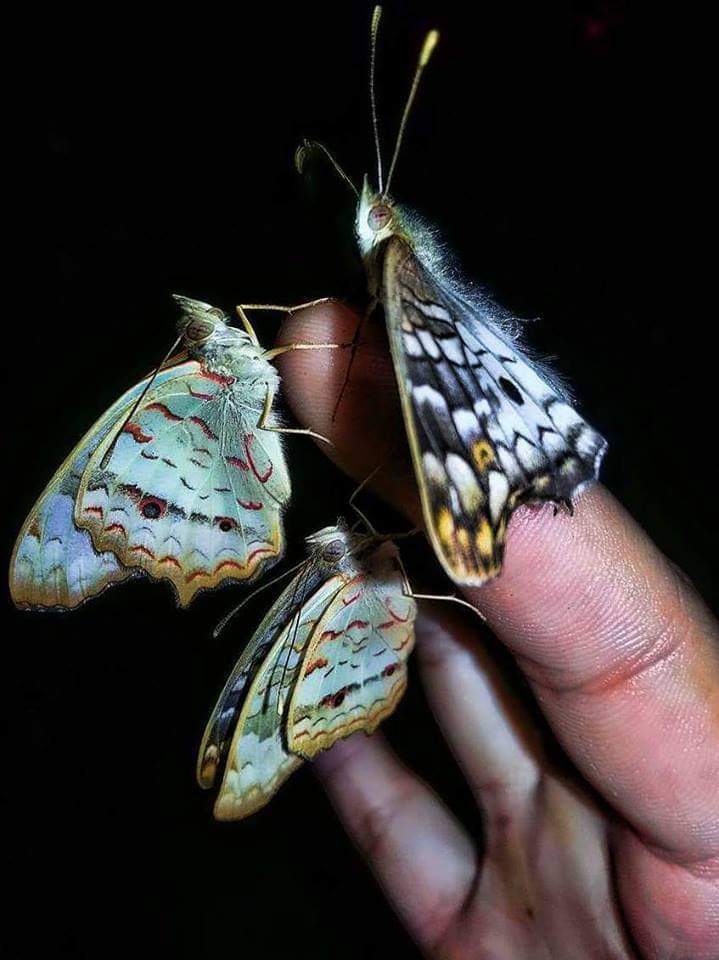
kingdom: Animalia
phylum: Arthropoda
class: Insecta
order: Lepidoptera
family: Nymphalidae
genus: Anartia
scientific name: Anartia jatrophae
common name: White peacock
